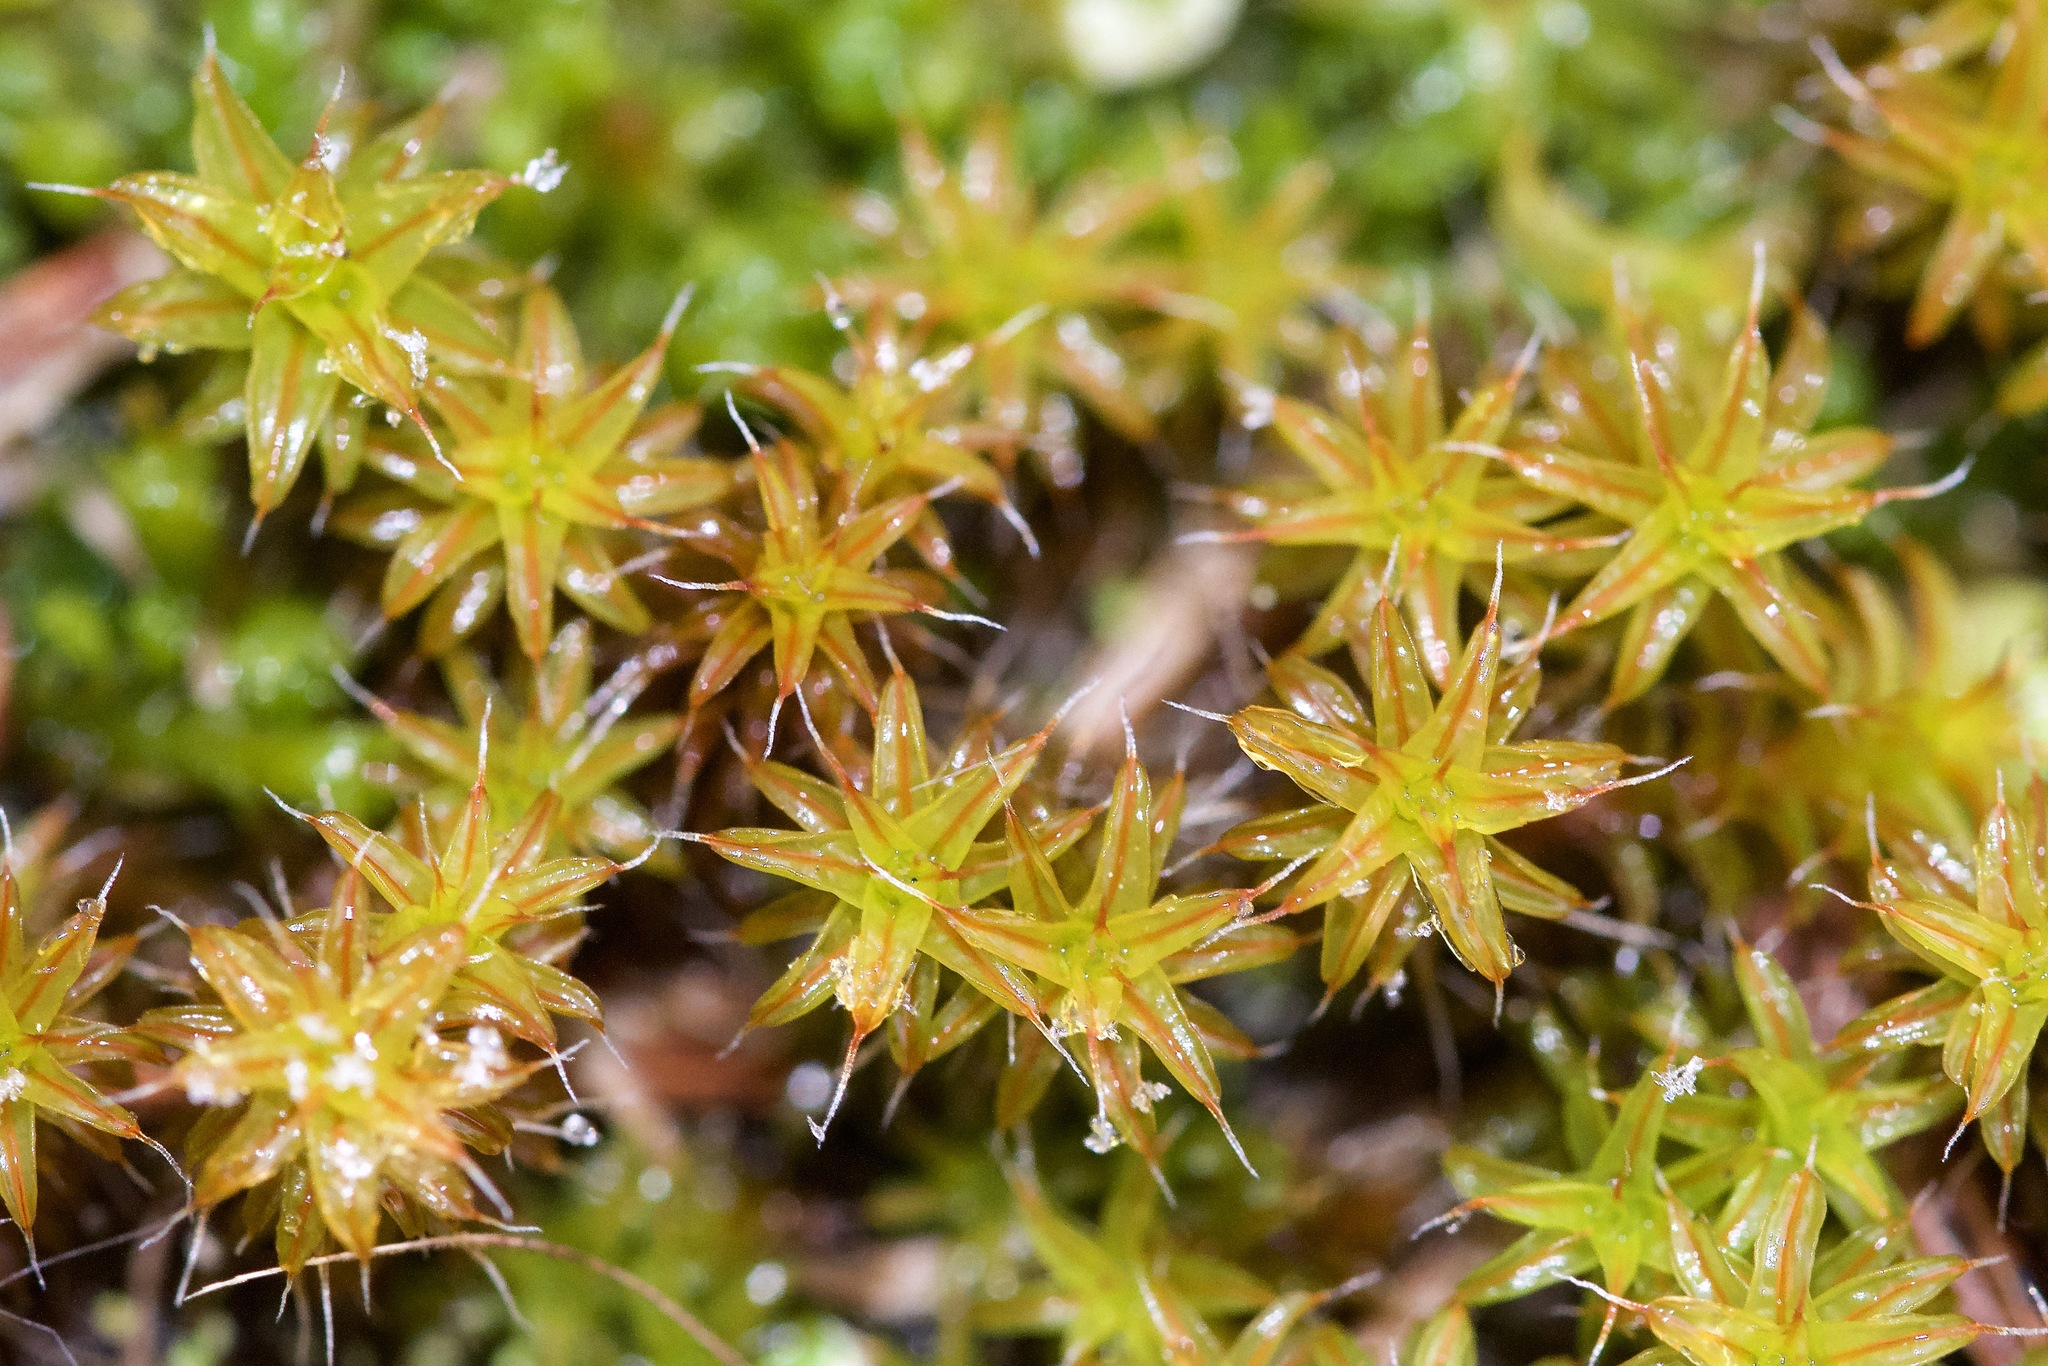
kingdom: Plantae
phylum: Bryophyta
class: Bryopsida
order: Pottiales
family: Pottiaceae
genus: Syntrichia
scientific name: Syntrichia ruralis
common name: Sidewalk screw moss
